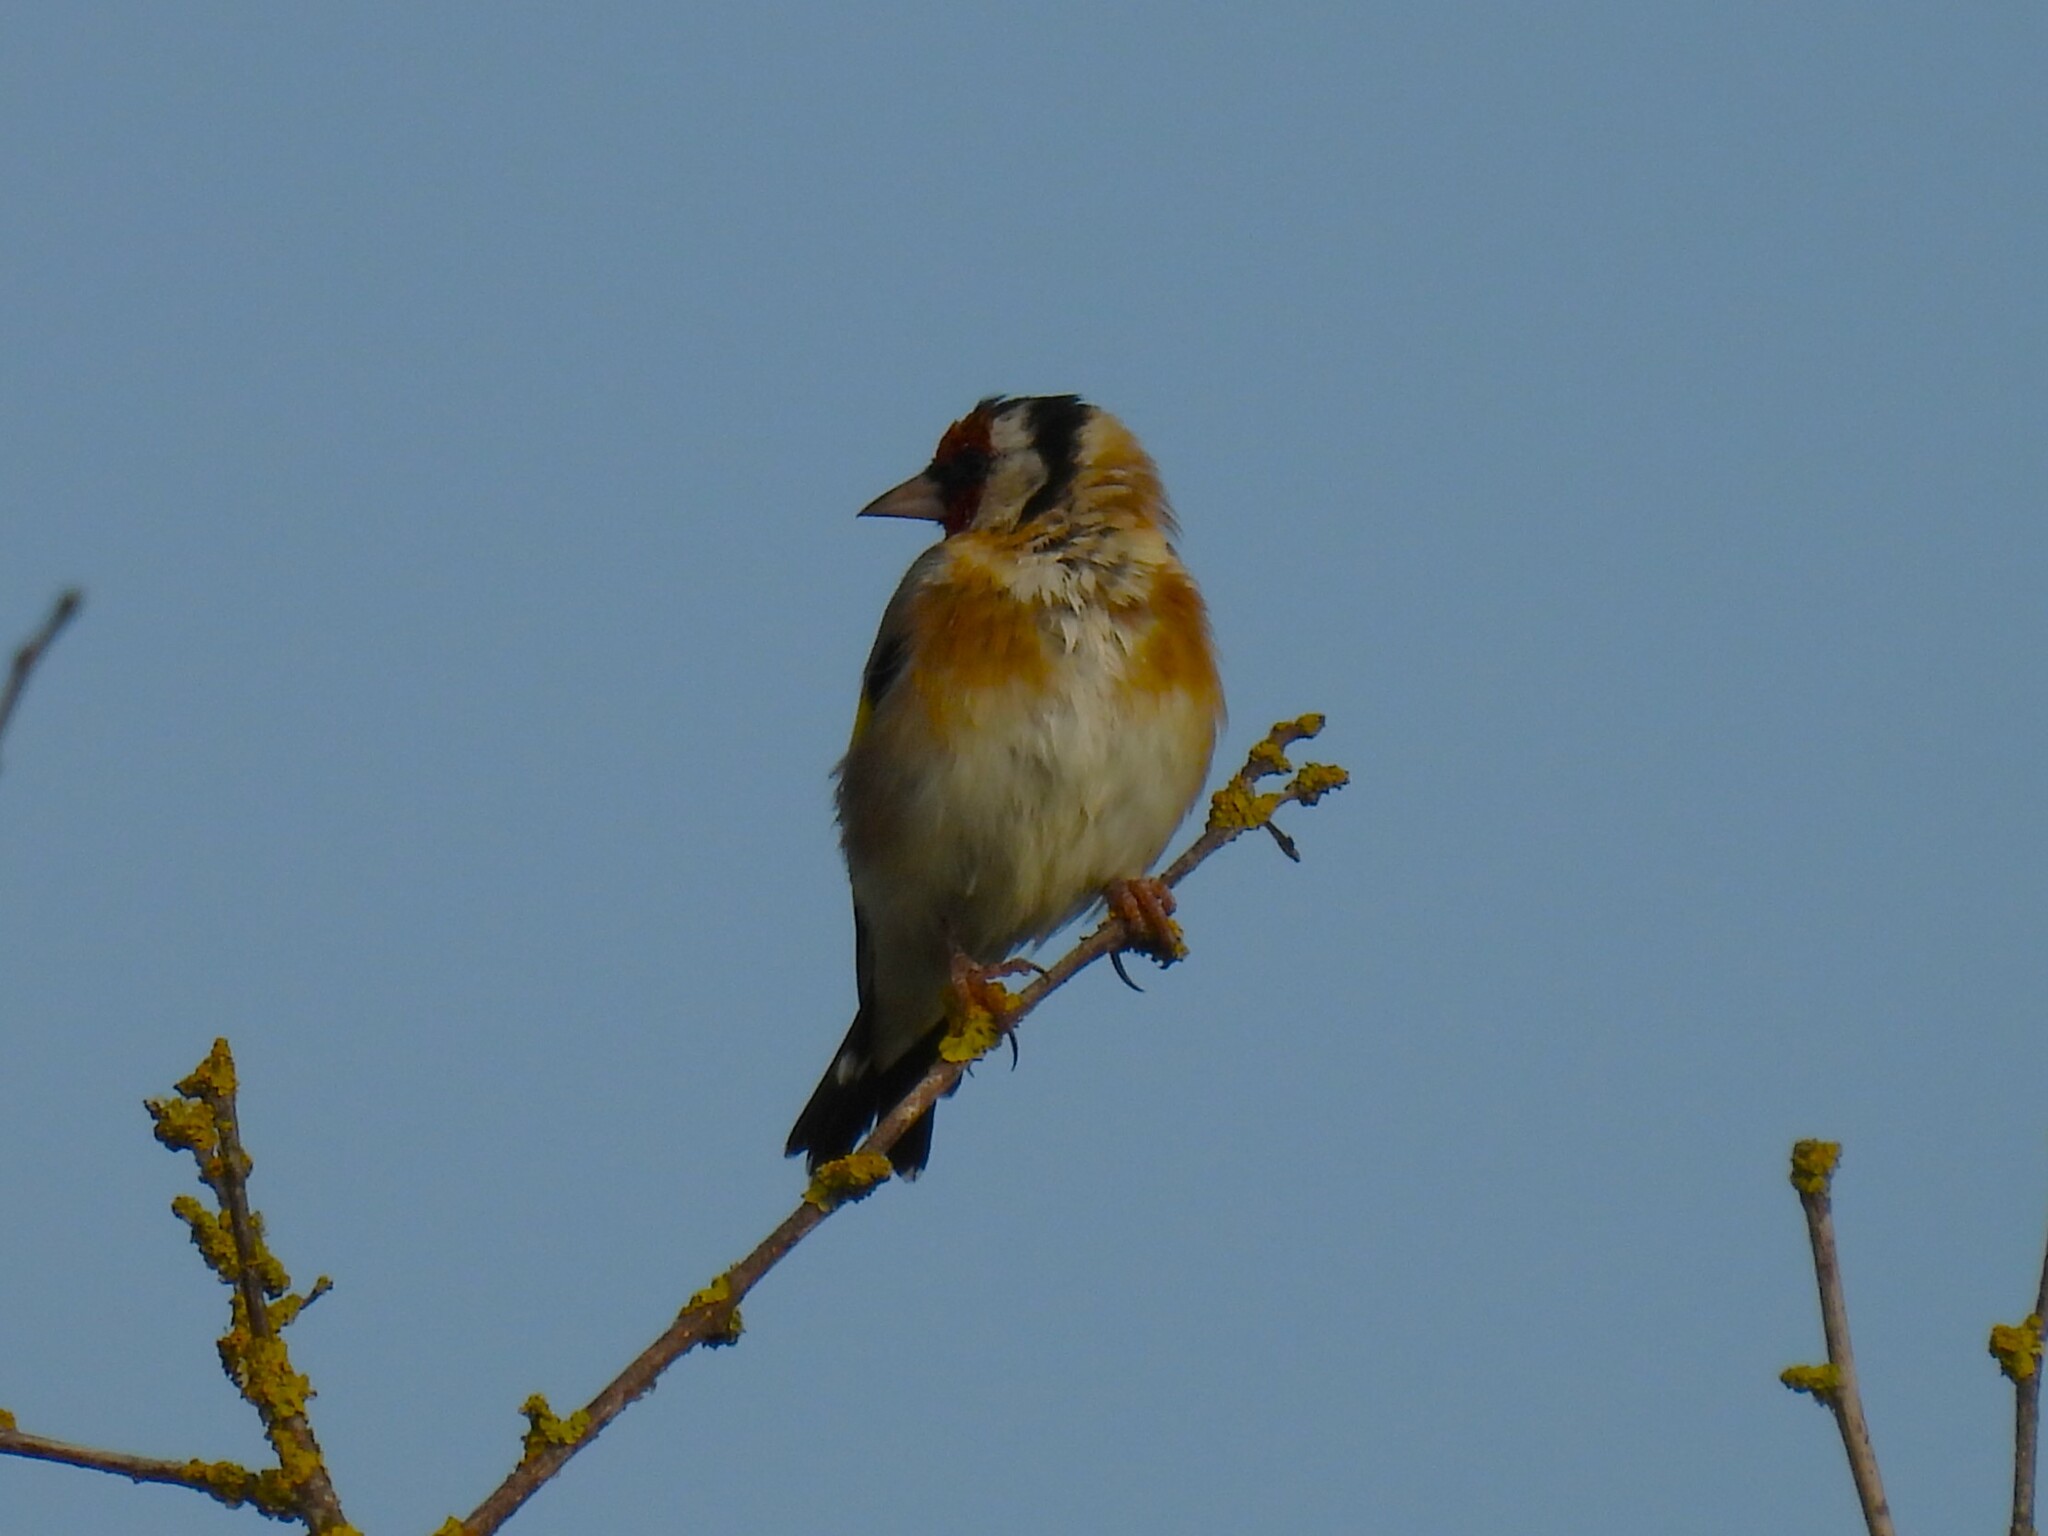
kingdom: Animalia
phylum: Chordata
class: Aves
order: Passeriformes
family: Fringillidae
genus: Carduelis
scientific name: Carduelis carduelis
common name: European goldfinch
